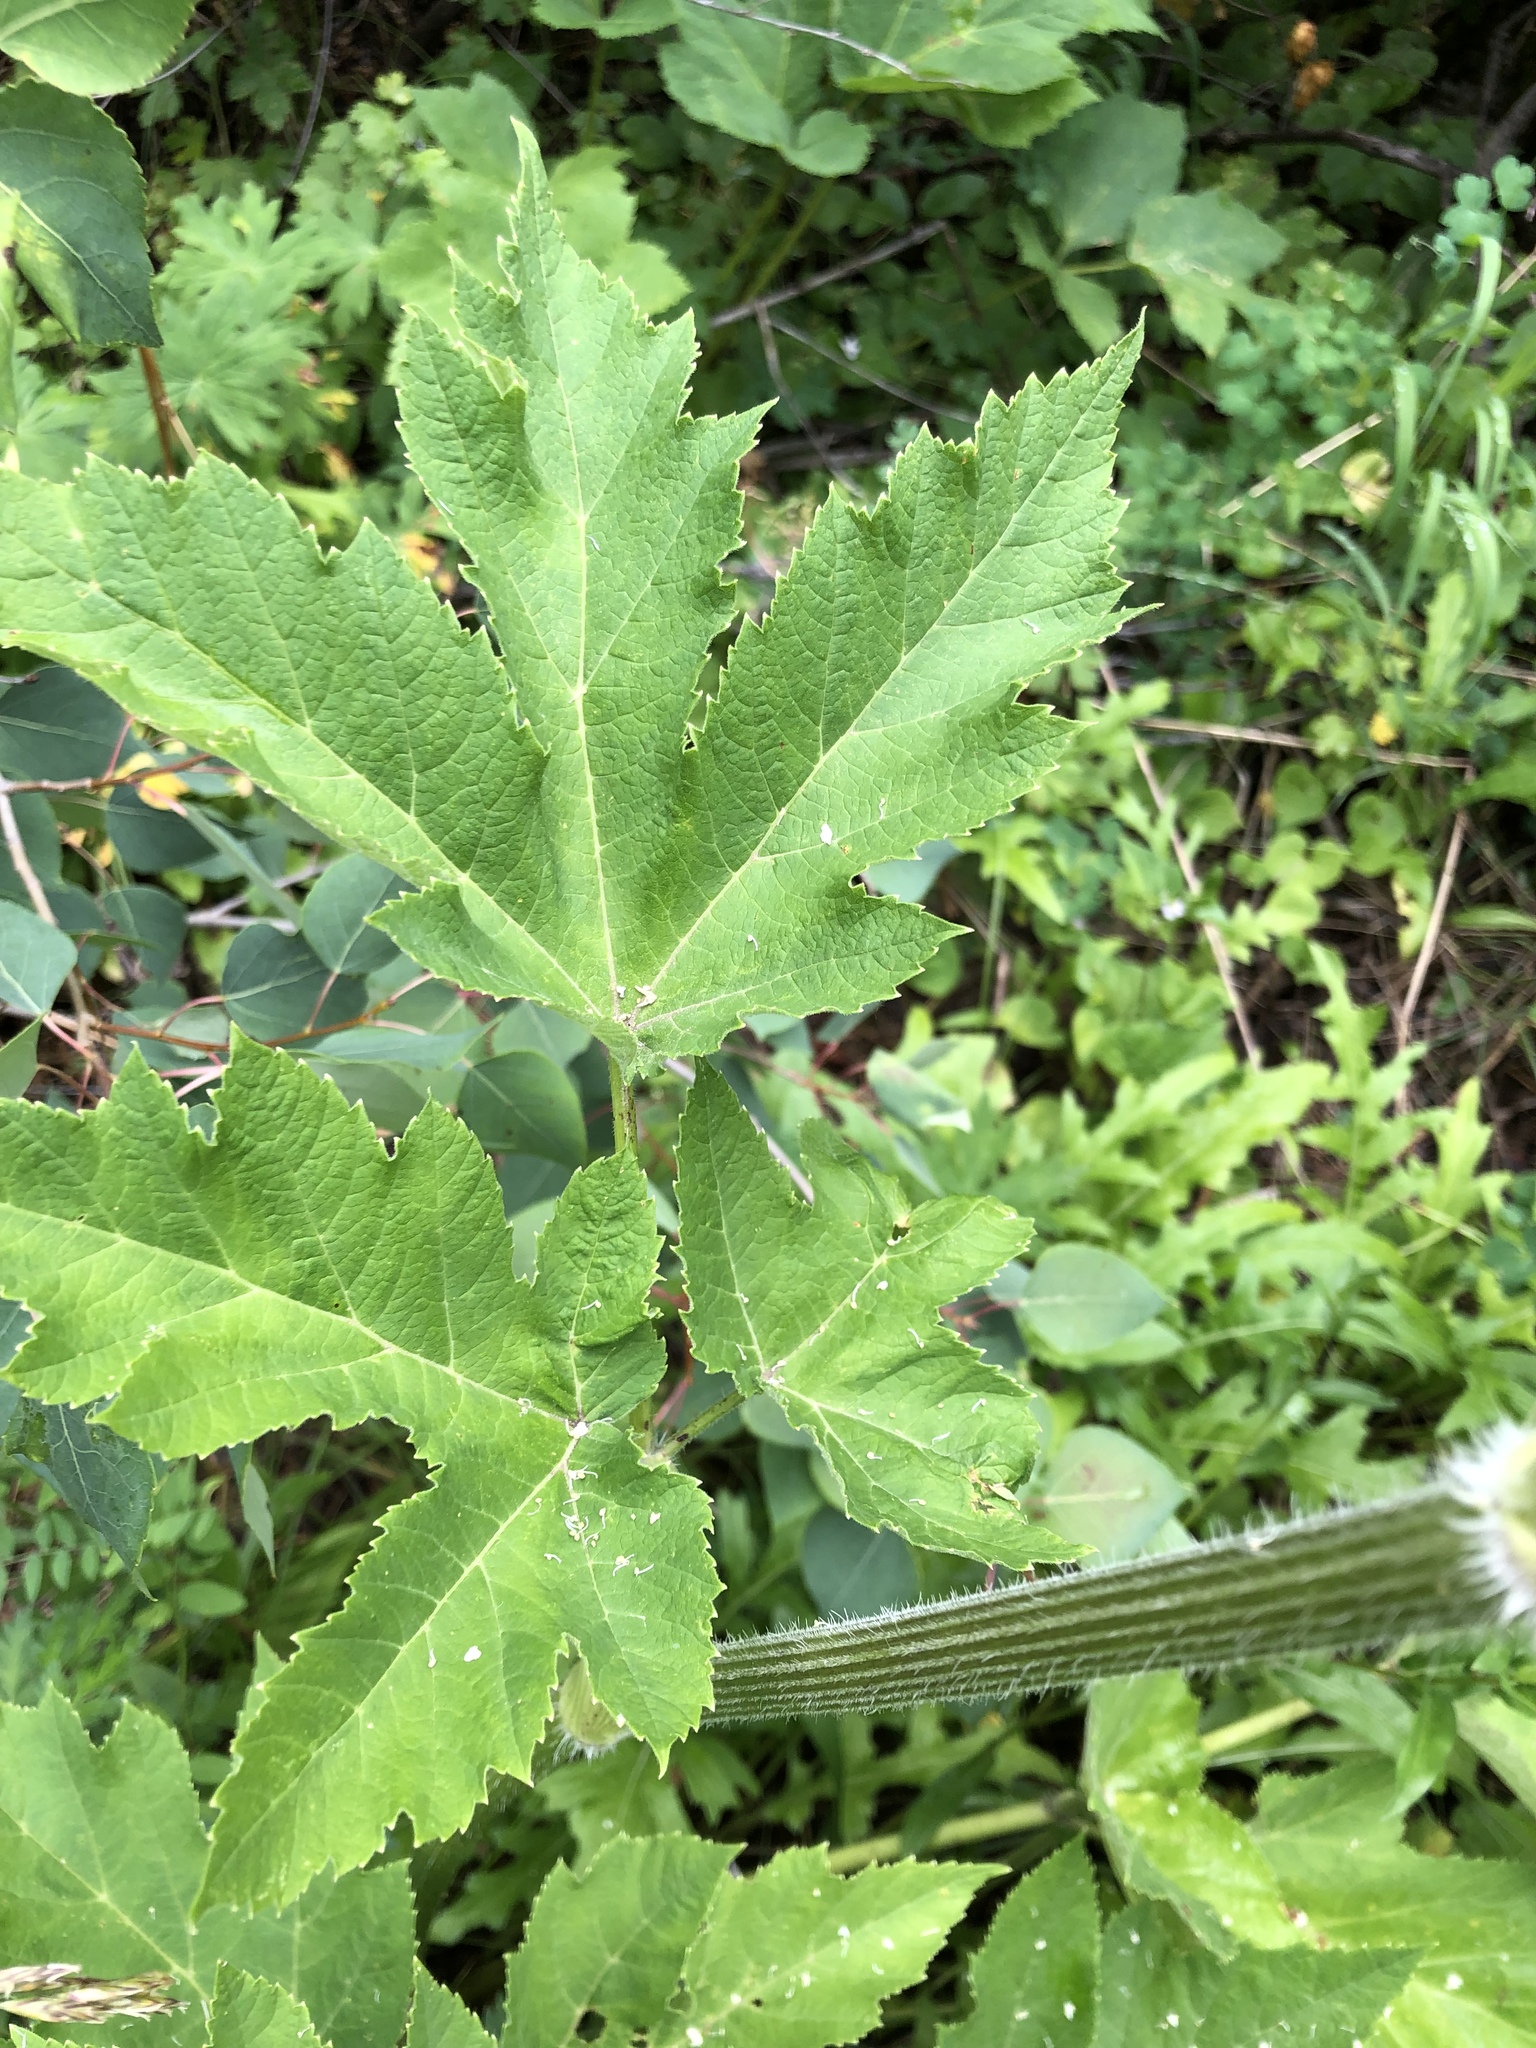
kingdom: Plantae
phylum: Tracheophyta
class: Magnoliopsida
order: Apiales
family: Apiaceae
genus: Heracleum
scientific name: Heracleum maximum
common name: American cow parsnip
